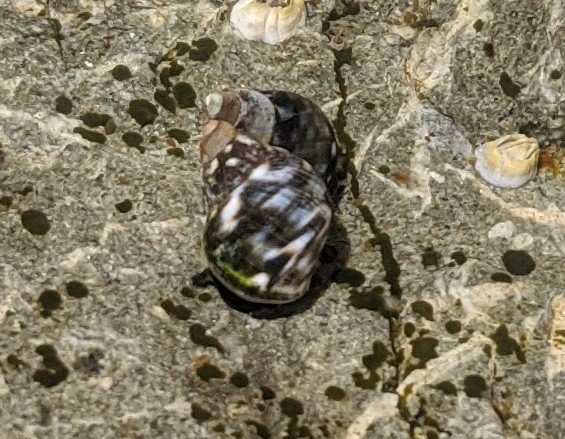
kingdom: Animalia
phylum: Mollusca
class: Gastropoda
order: Littorinimorpha
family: Littorinidae
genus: Littorina
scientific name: Littorina scutulata
